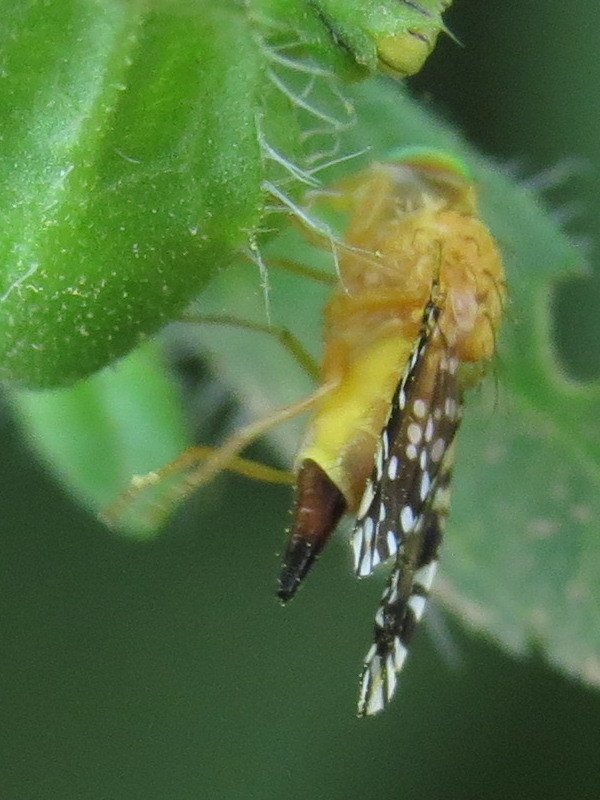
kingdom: Animalia
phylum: Arthropoda
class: Insecta
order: Diptera
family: Tephritidae
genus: Euaresta
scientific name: Euaresta festiva
